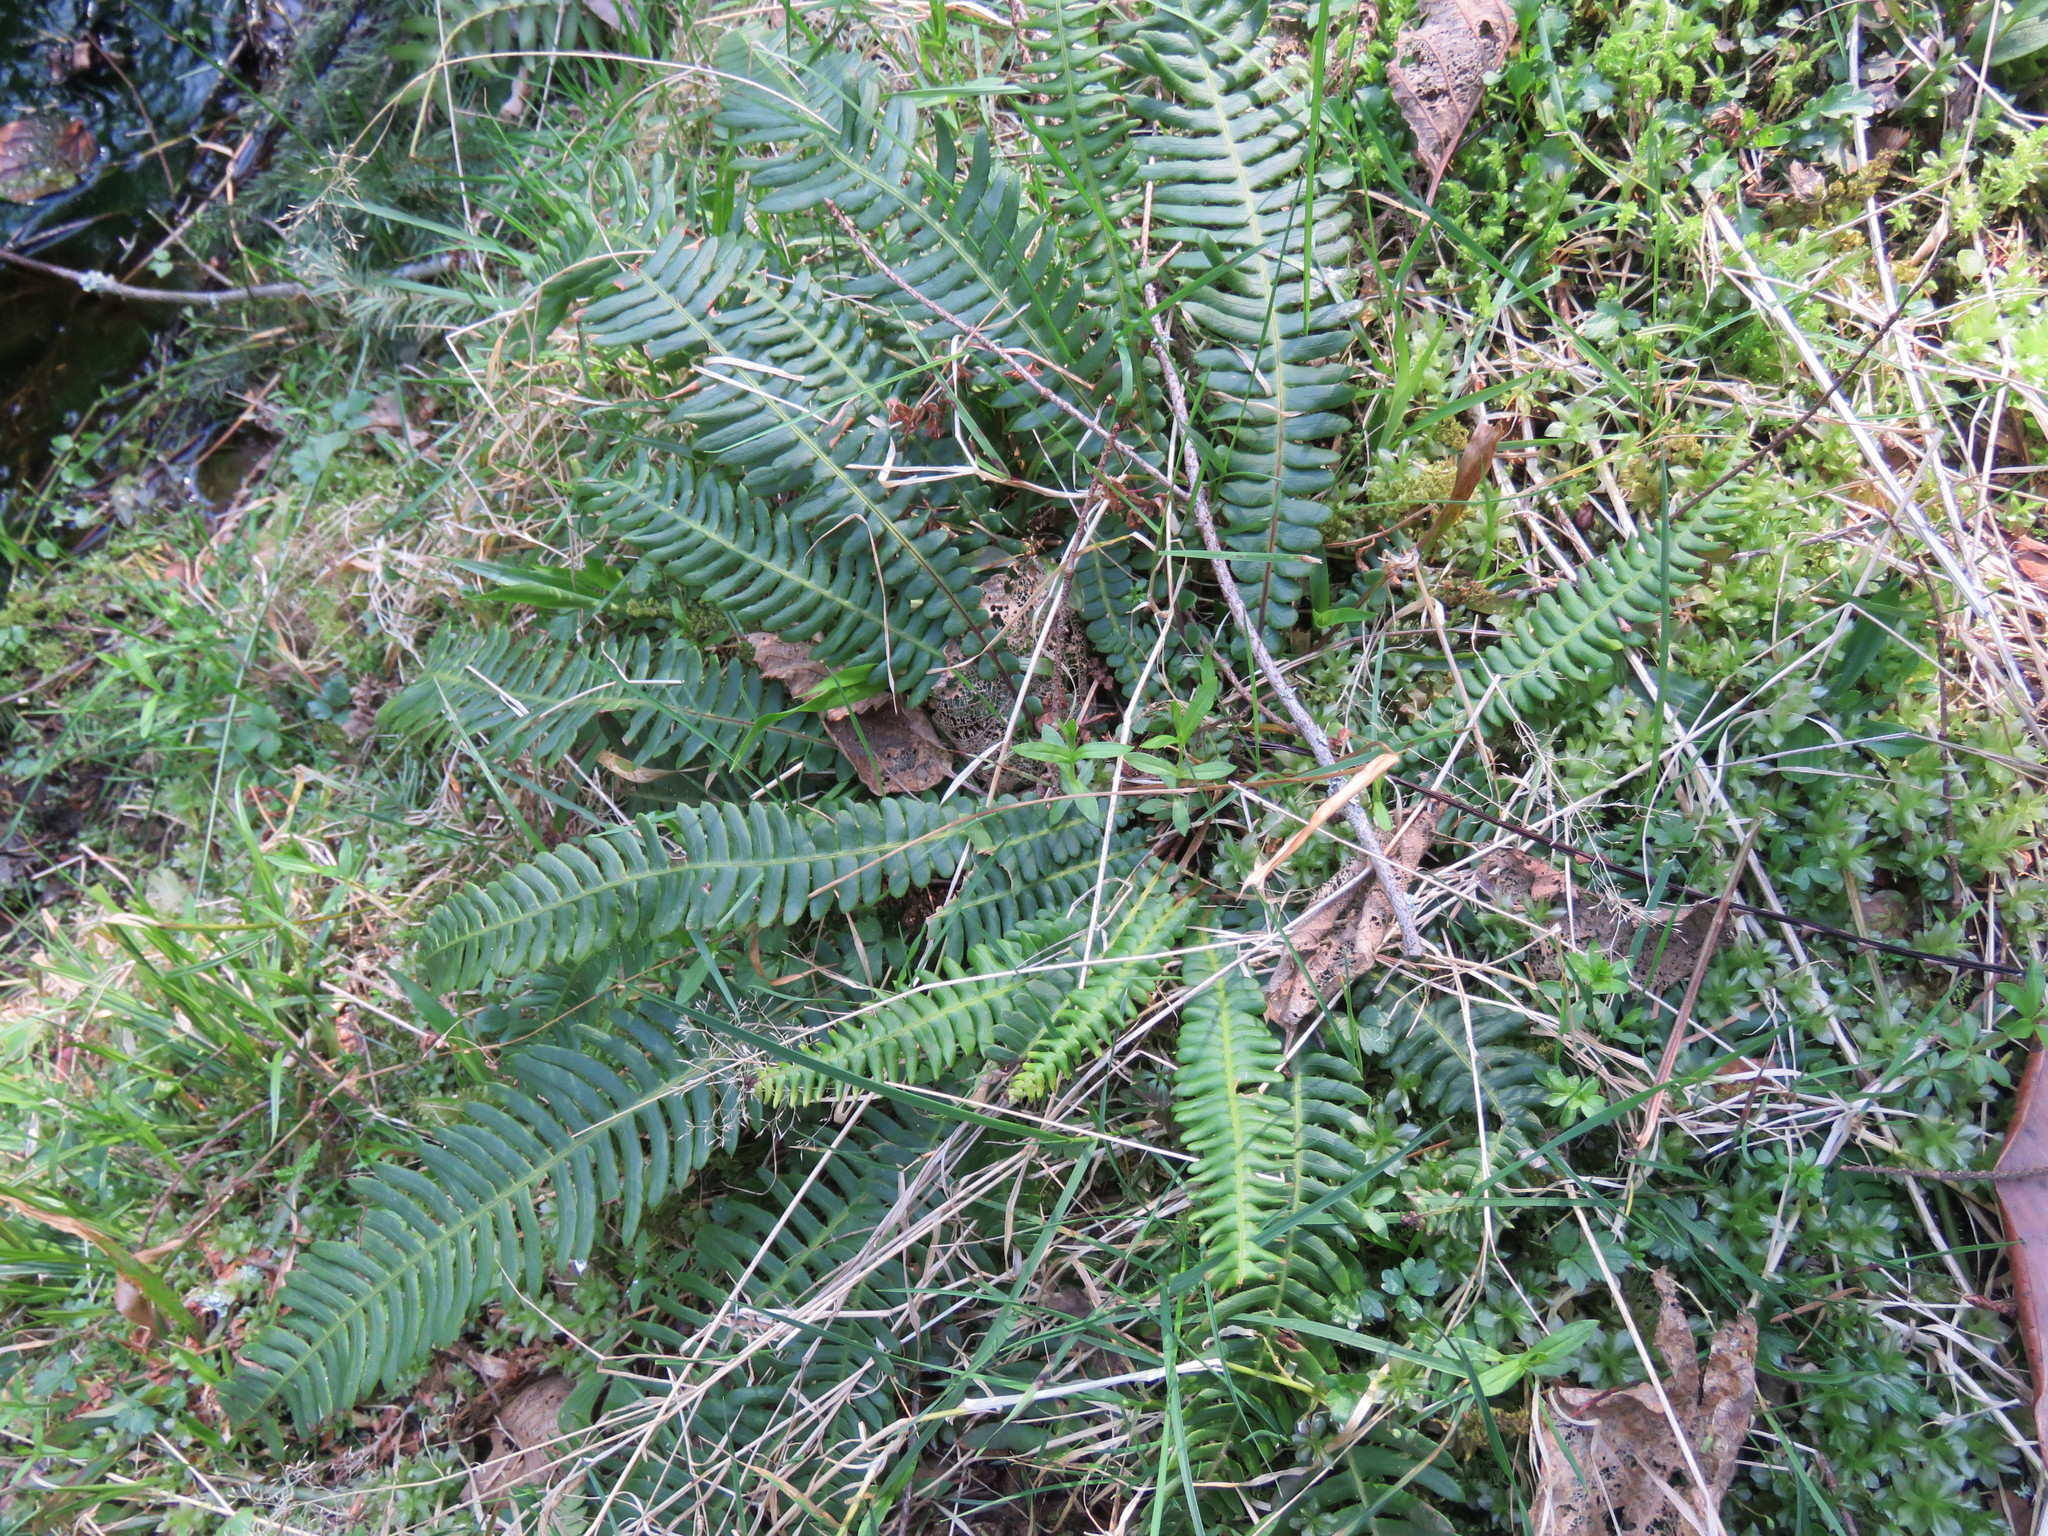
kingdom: Plantae
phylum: Tracheophyta
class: Polypodiopsida
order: Polypodiales
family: Blechnaceae
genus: Struthiopteris
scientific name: Struthiopteris spicant
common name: Deer fern
